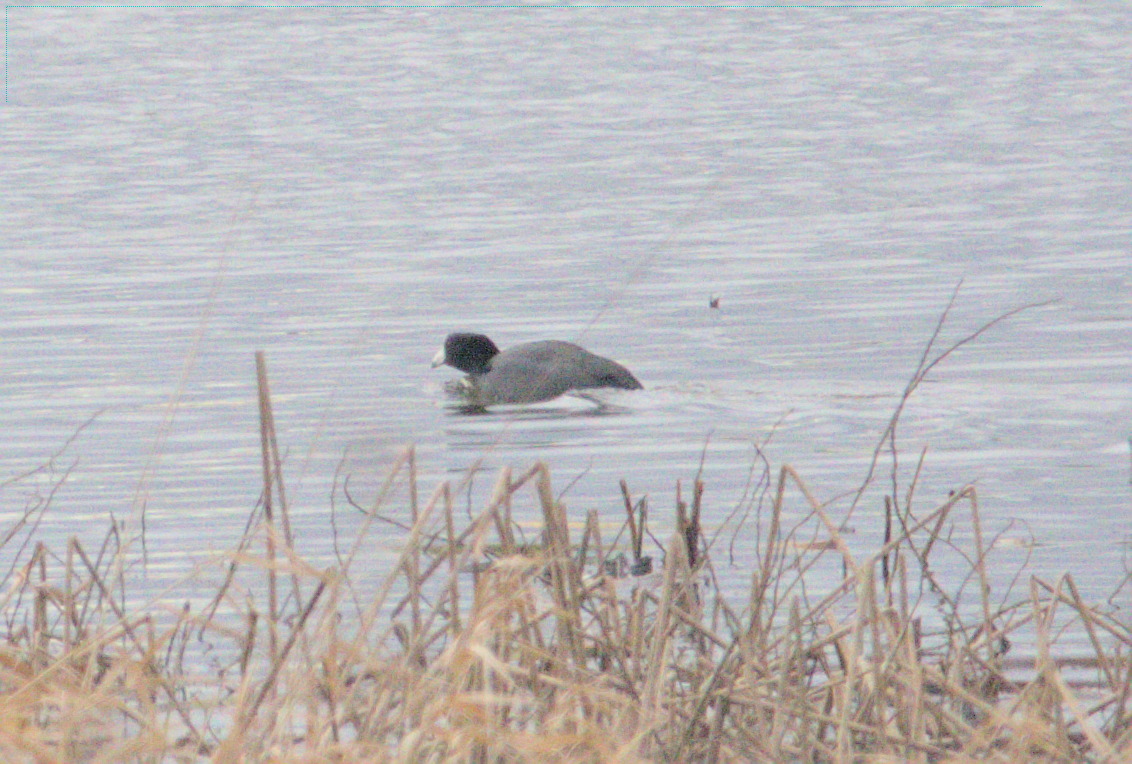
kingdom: Animalia
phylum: Chordata
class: Aves
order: Gruiformes
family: Rallidae
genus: Fulica
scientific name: Fulica americana
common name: American coot
